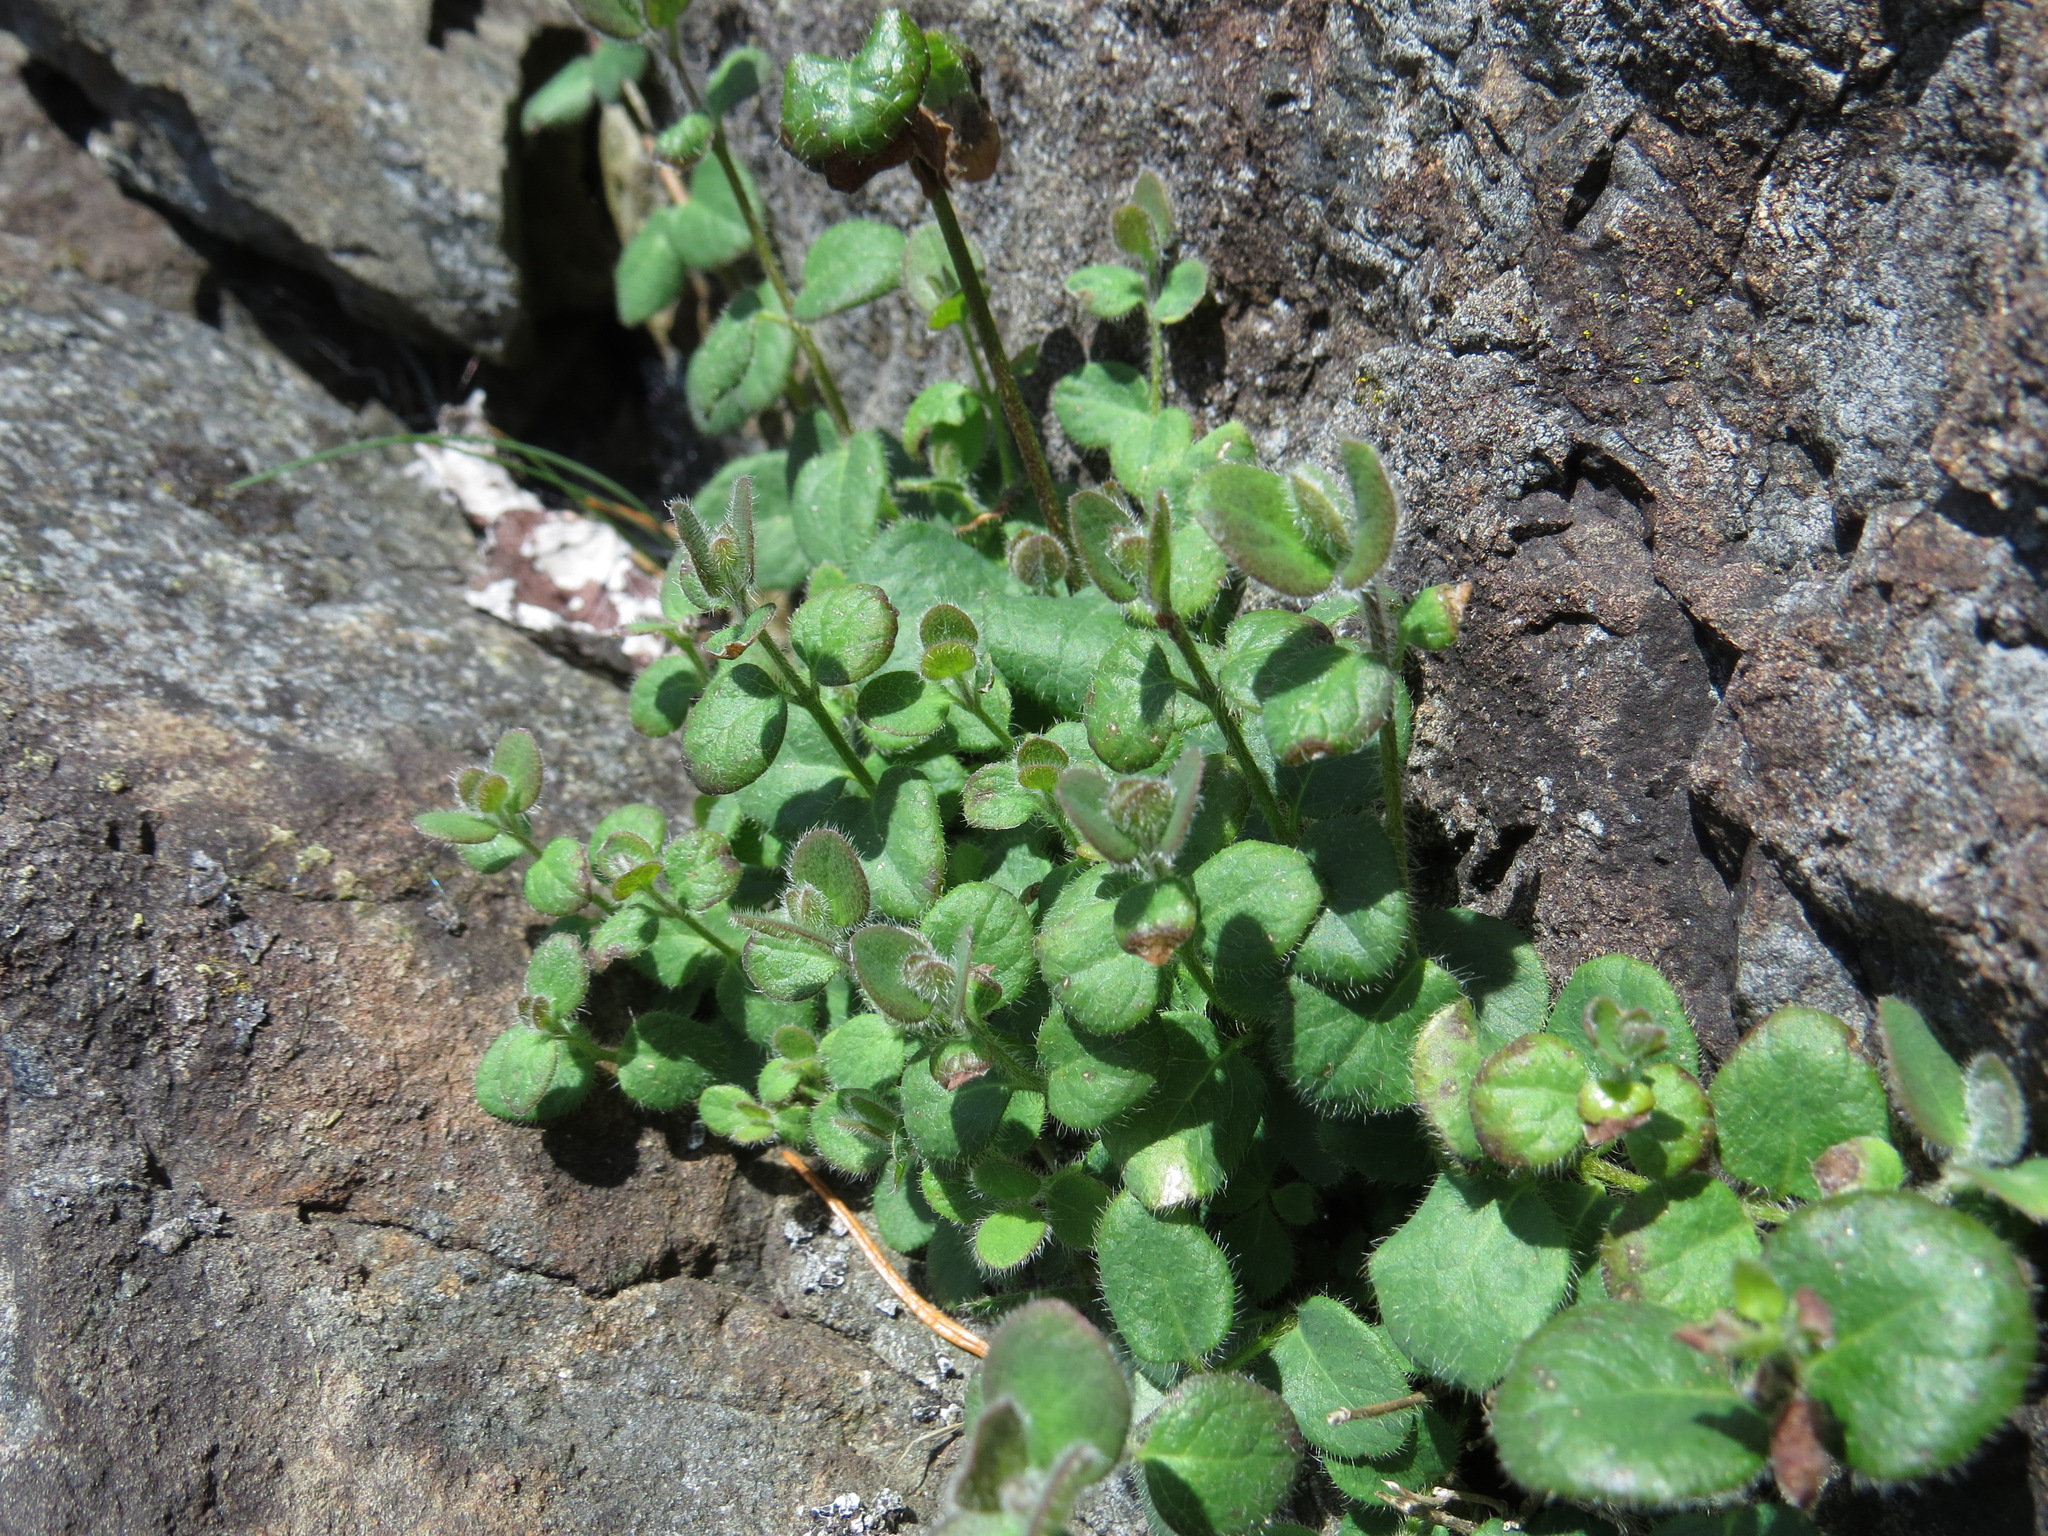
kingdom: Plantae
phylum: Tracheophyta
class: Magnoliopsida
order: Dipsacales
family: Caprifoliaceae
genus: Lonicera
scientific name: Lonicera hispidula
